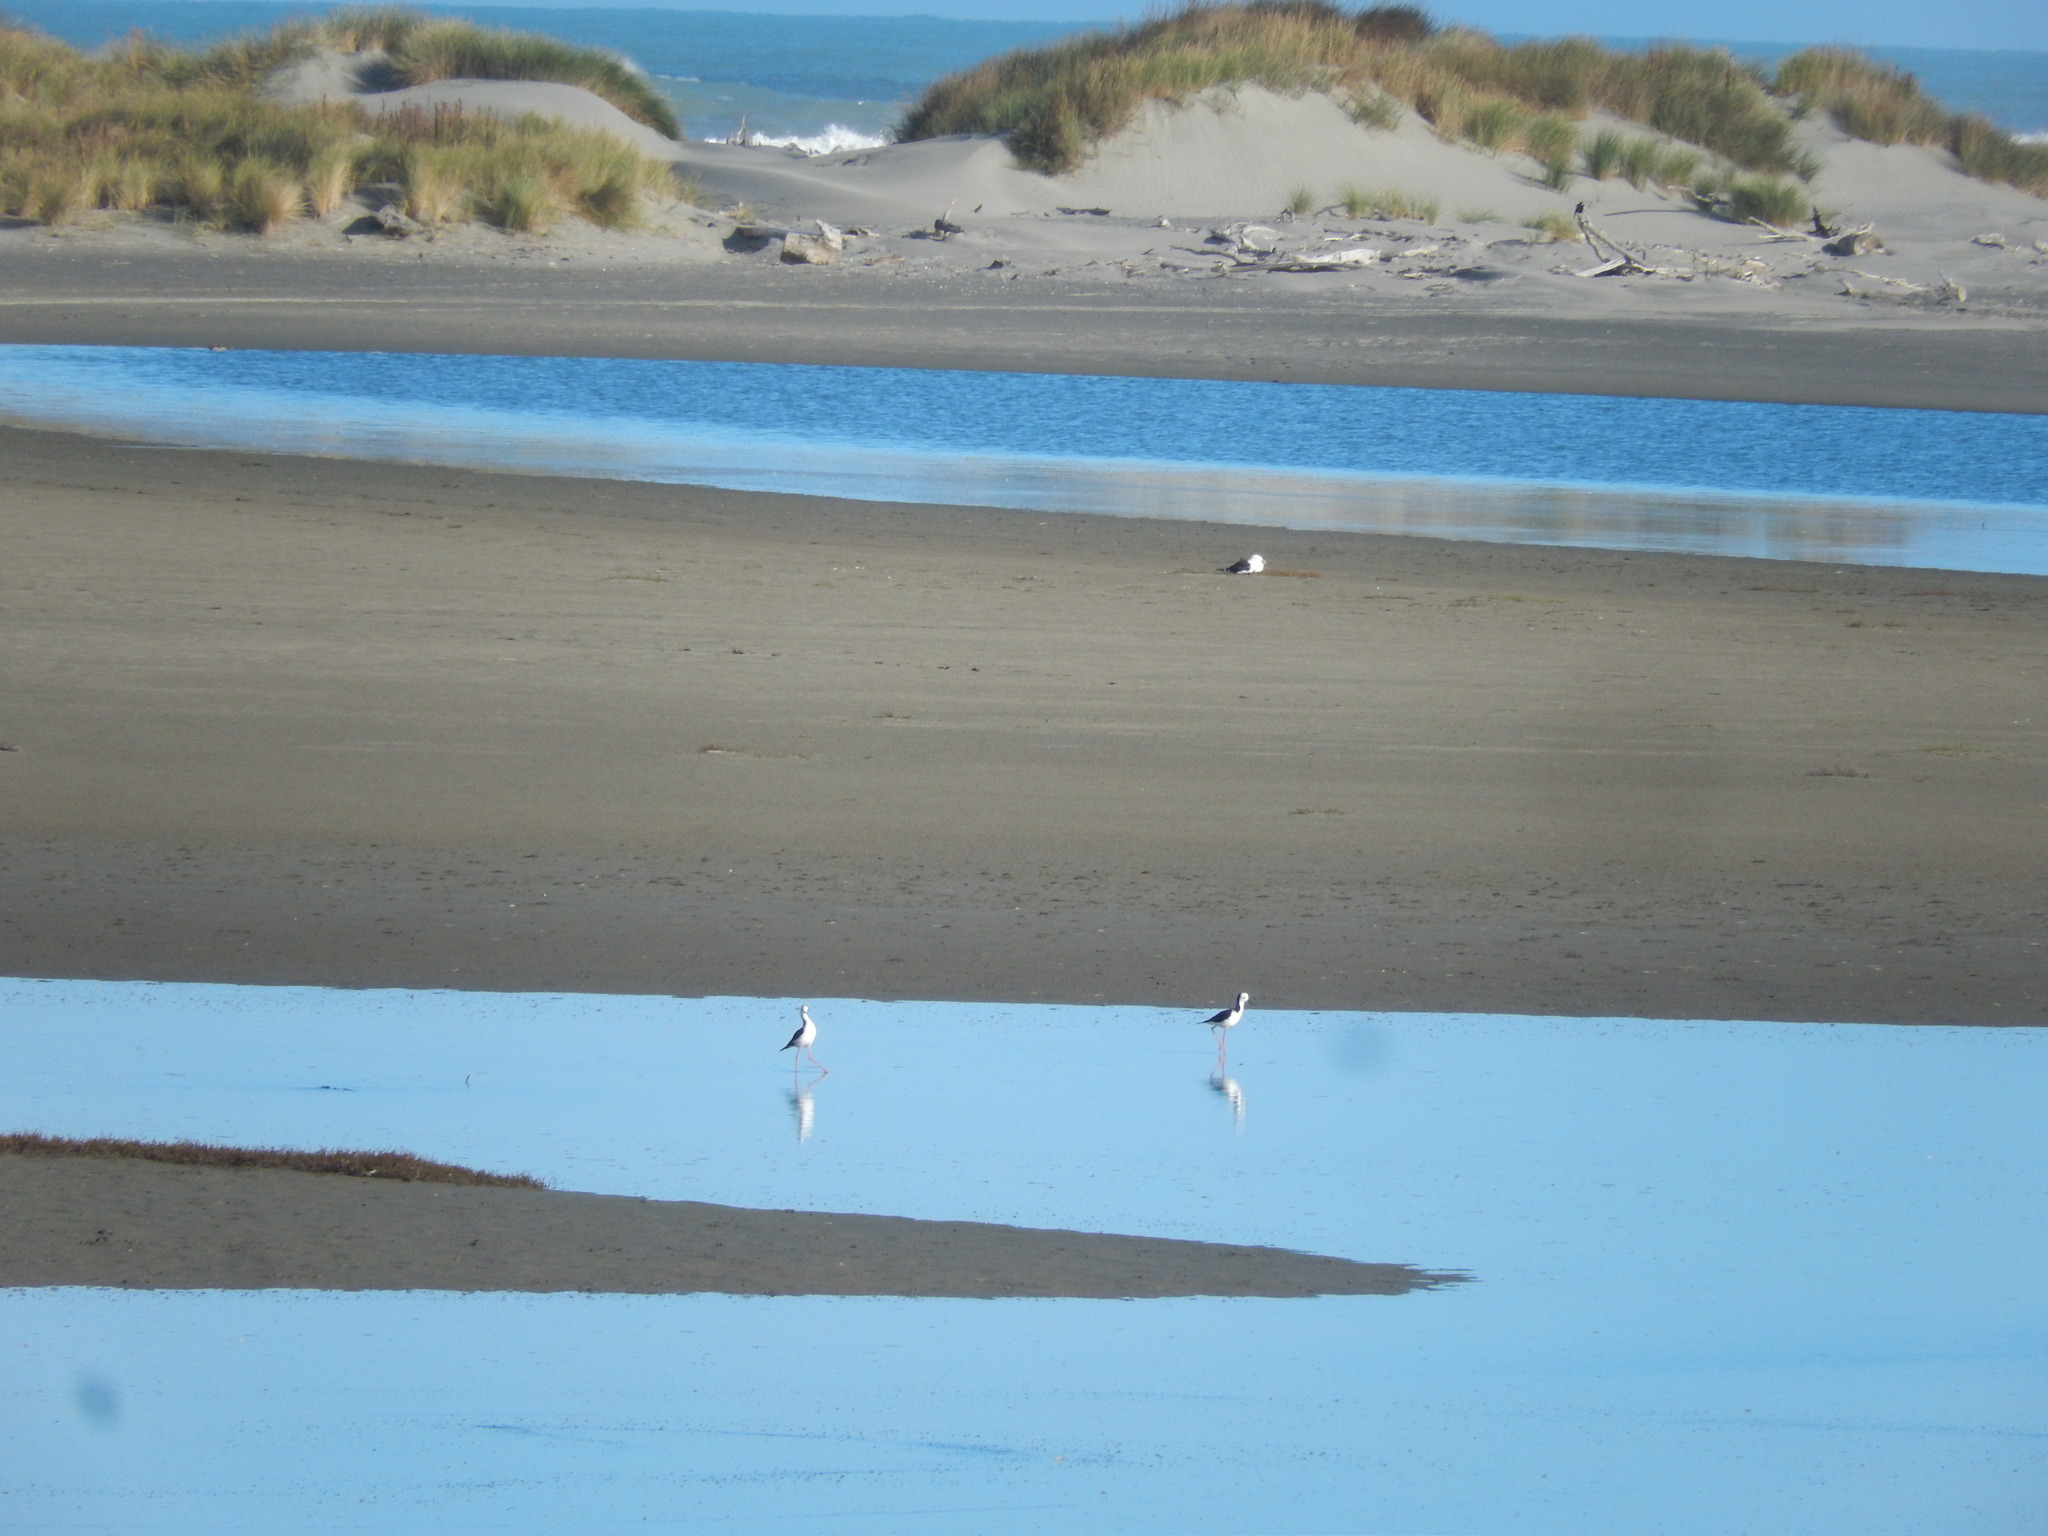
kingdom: Animalia
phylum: Chordata
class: Aves
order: Charadriiformes
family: Recurvirostridae
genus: Himantopus
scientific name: Himantopus leucocephalus
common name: White-headed stilt
